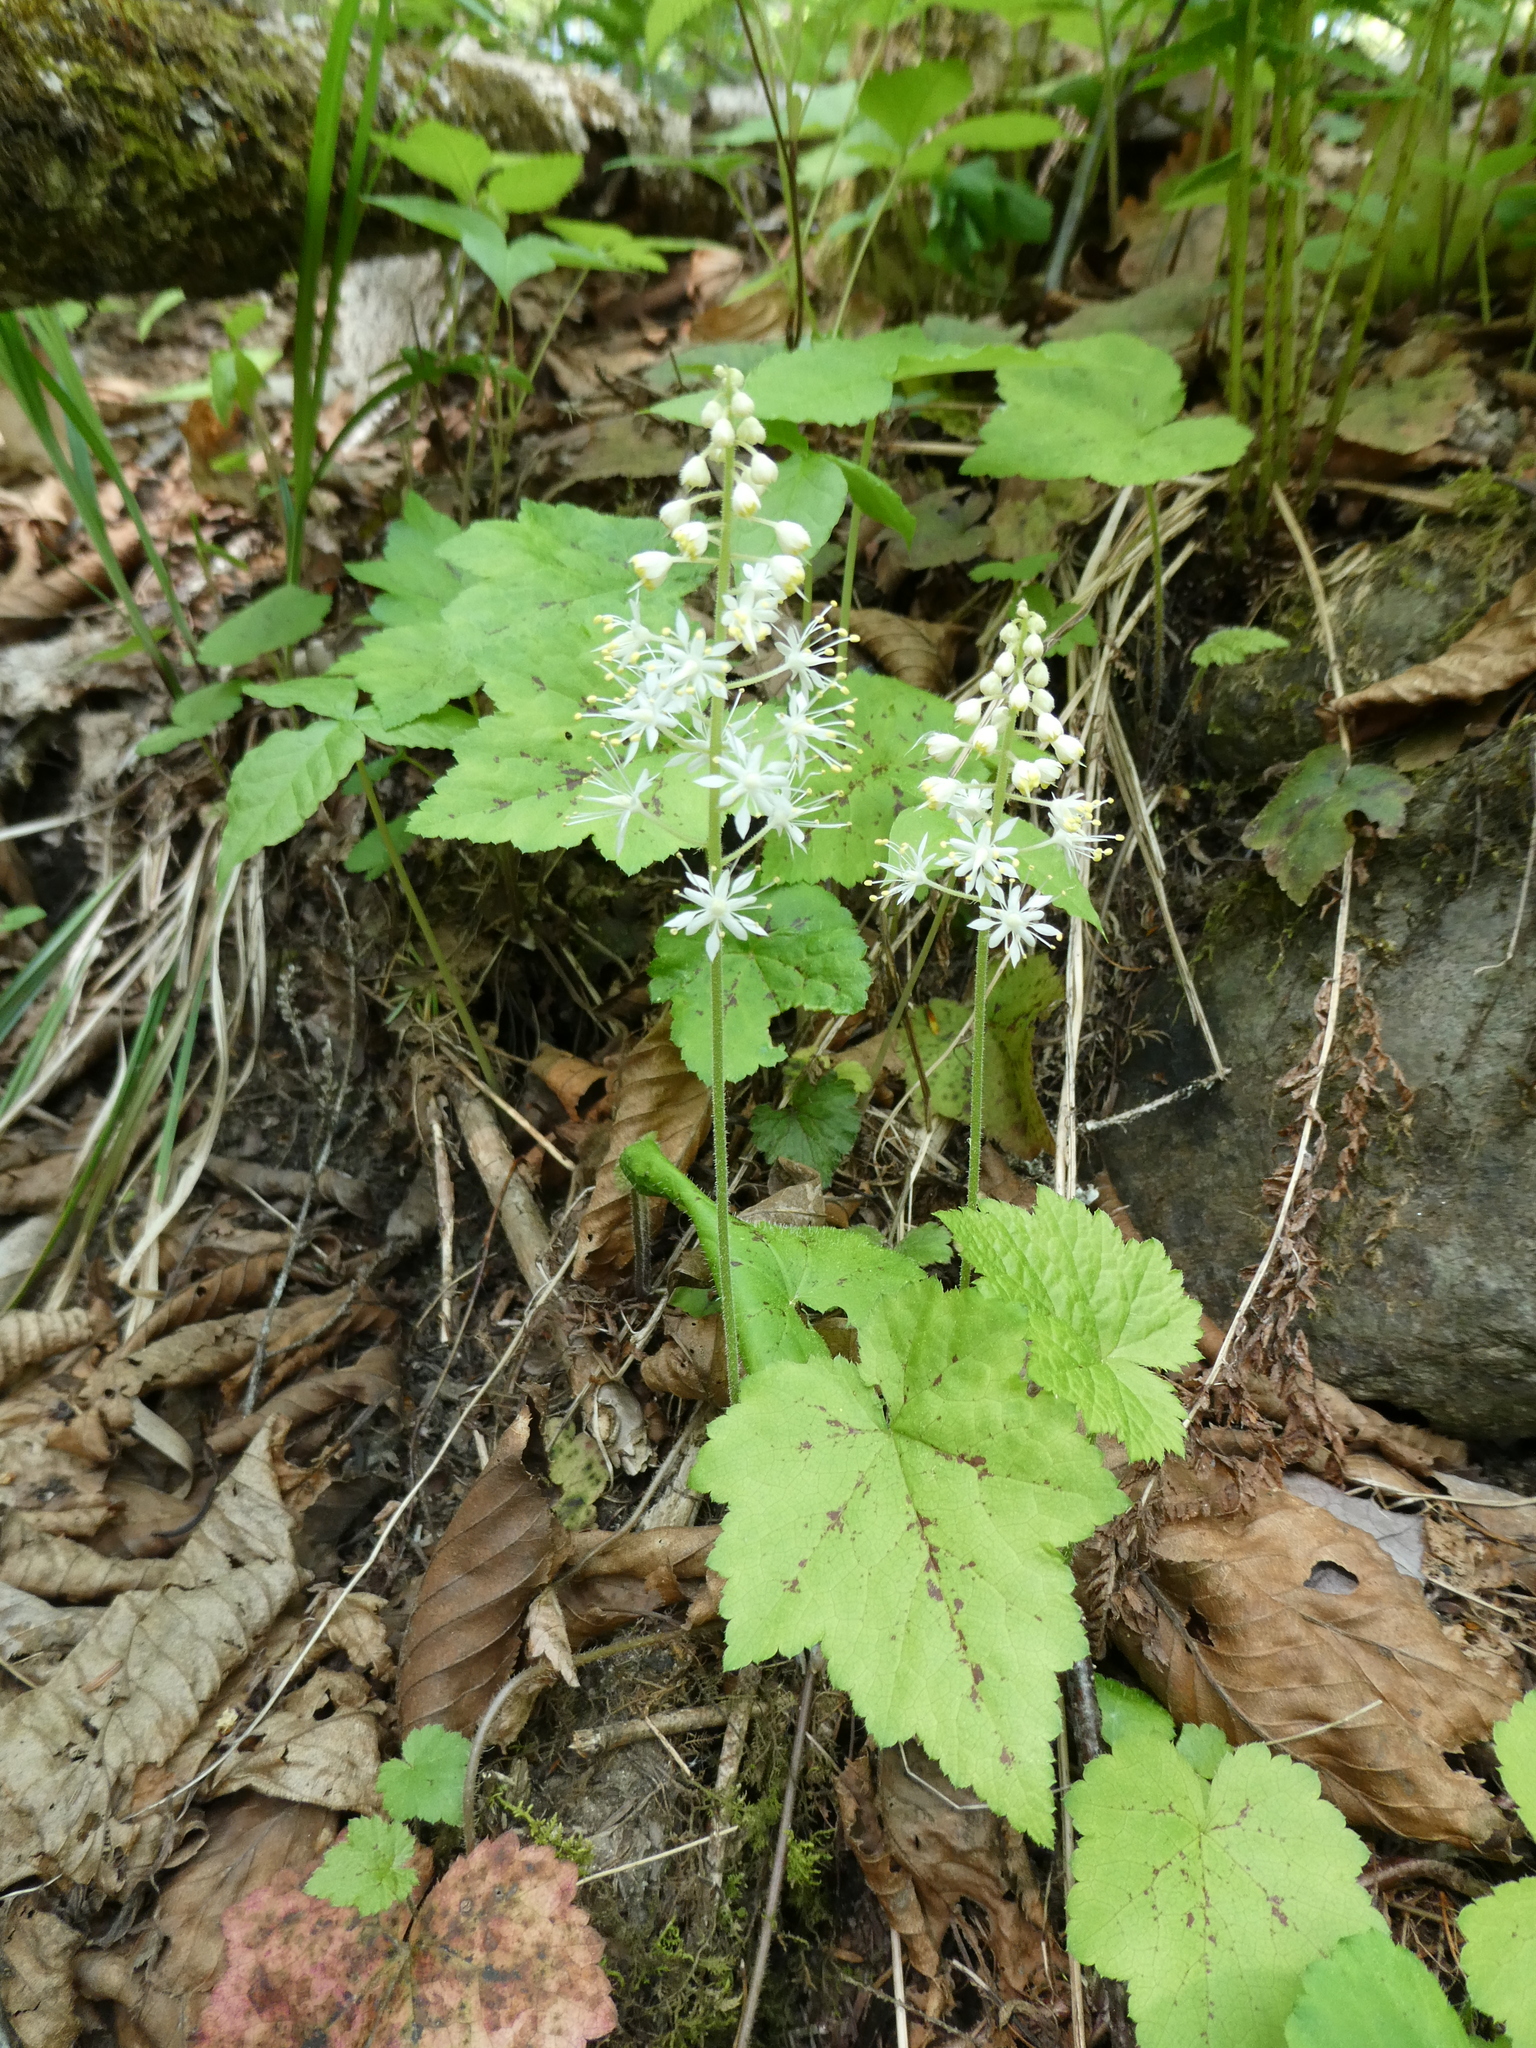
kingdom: Plantae
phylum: Tracheophyta
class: Magnoliopsida
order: Saxifragales
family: Saxifragaceae
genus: Tiarella
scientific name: Tiarella stolonifera
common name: Stoloniferous foamflower
